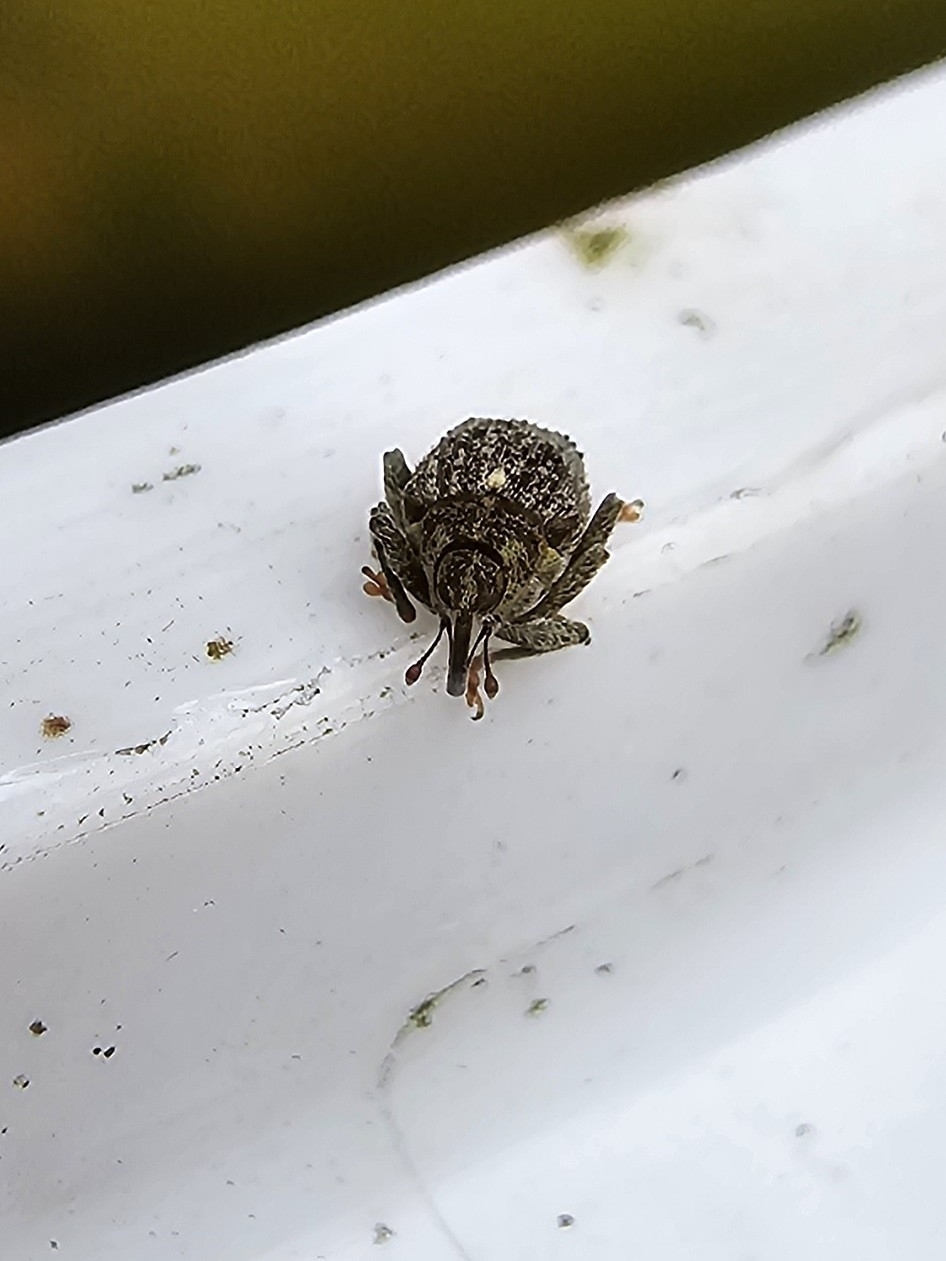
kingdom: Animalia
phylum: Arthropoda
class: Insecta
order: Coleoptera
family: Curculionidae
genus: Ceutorhynchus
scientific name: Ceutorhynchus pallidactylus
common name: Cabbage stem weavil
